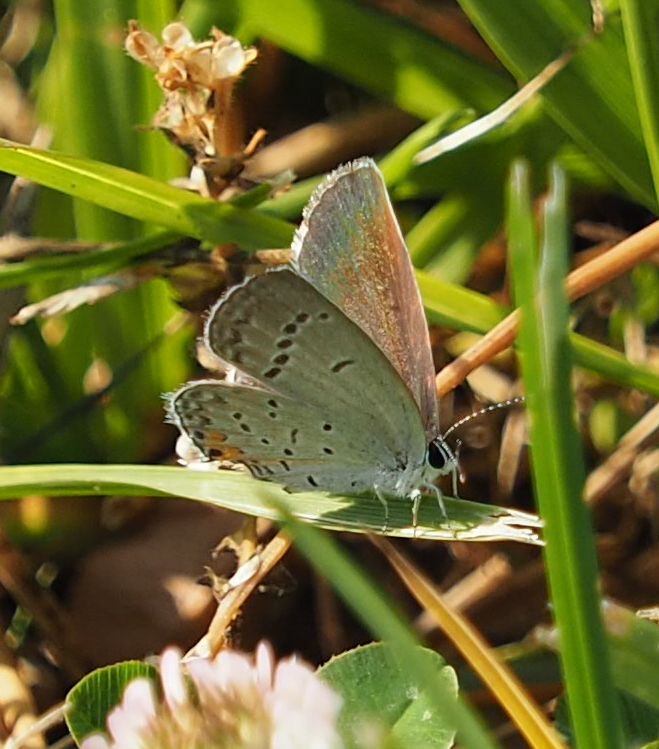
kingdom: Animalia
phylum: Arthropoda
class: Insecta
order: Lepidoptera
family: Lycaenidae
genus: Elkalyce
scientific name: Elkalyce comyntas
